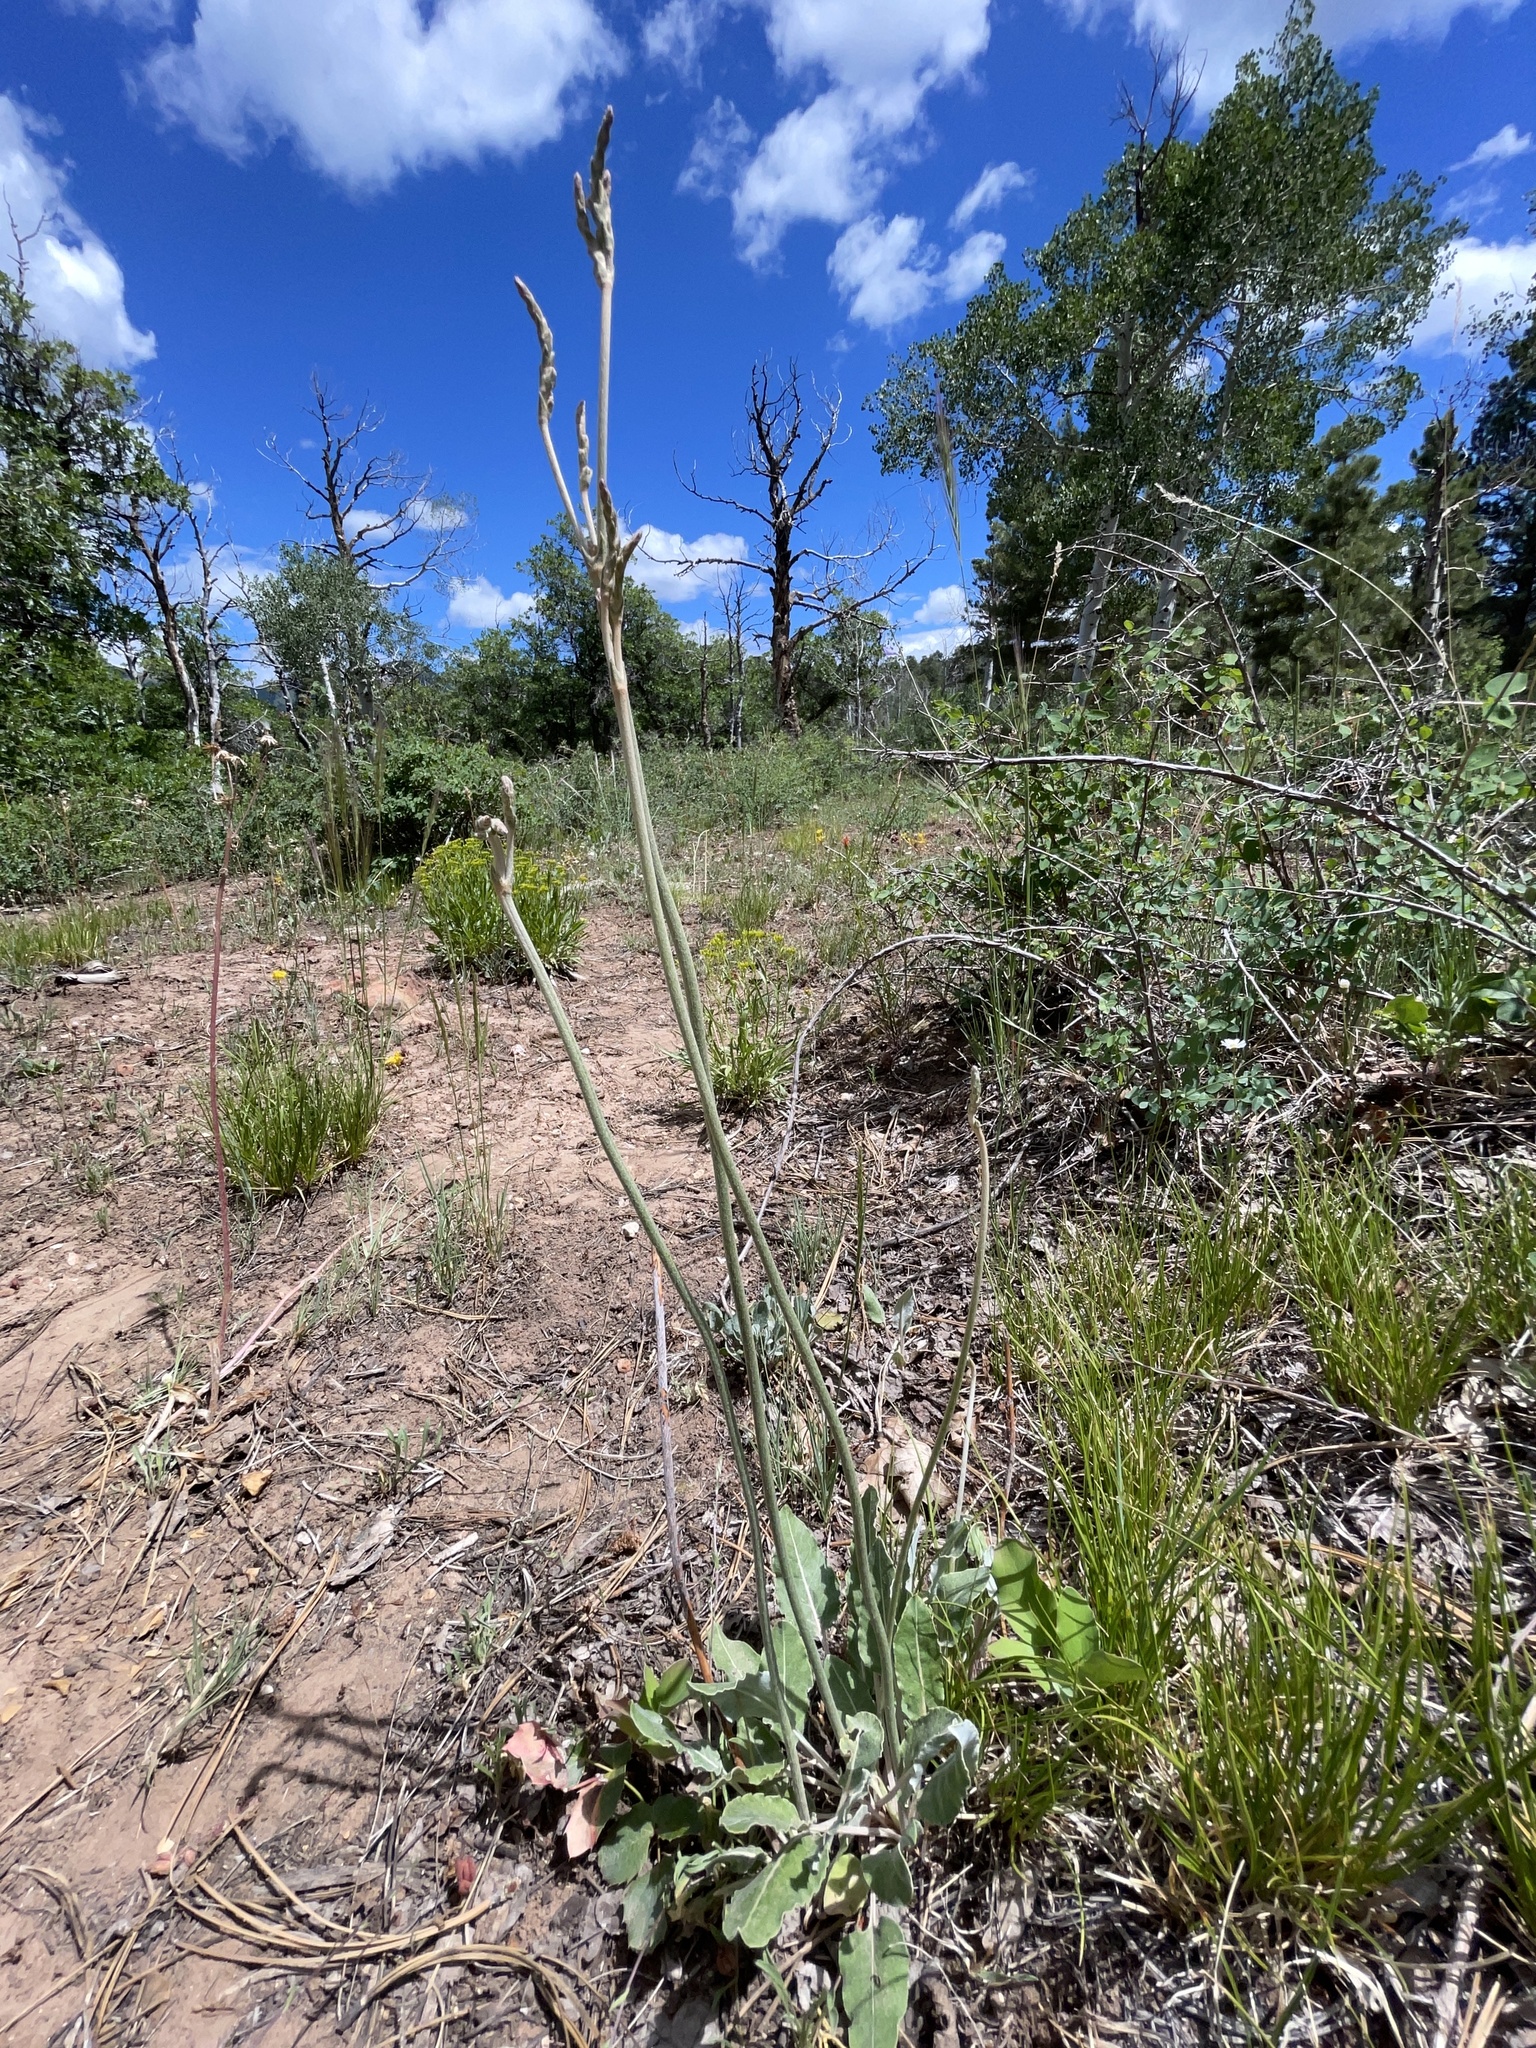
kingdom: Plantae
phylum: Tracheophyta
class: Magnoliopsida
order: Caryophyllales
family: Polygonaceae
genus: Eriogonum
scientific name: Eriogonum racemosum
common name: Redroot wild buckwheat
